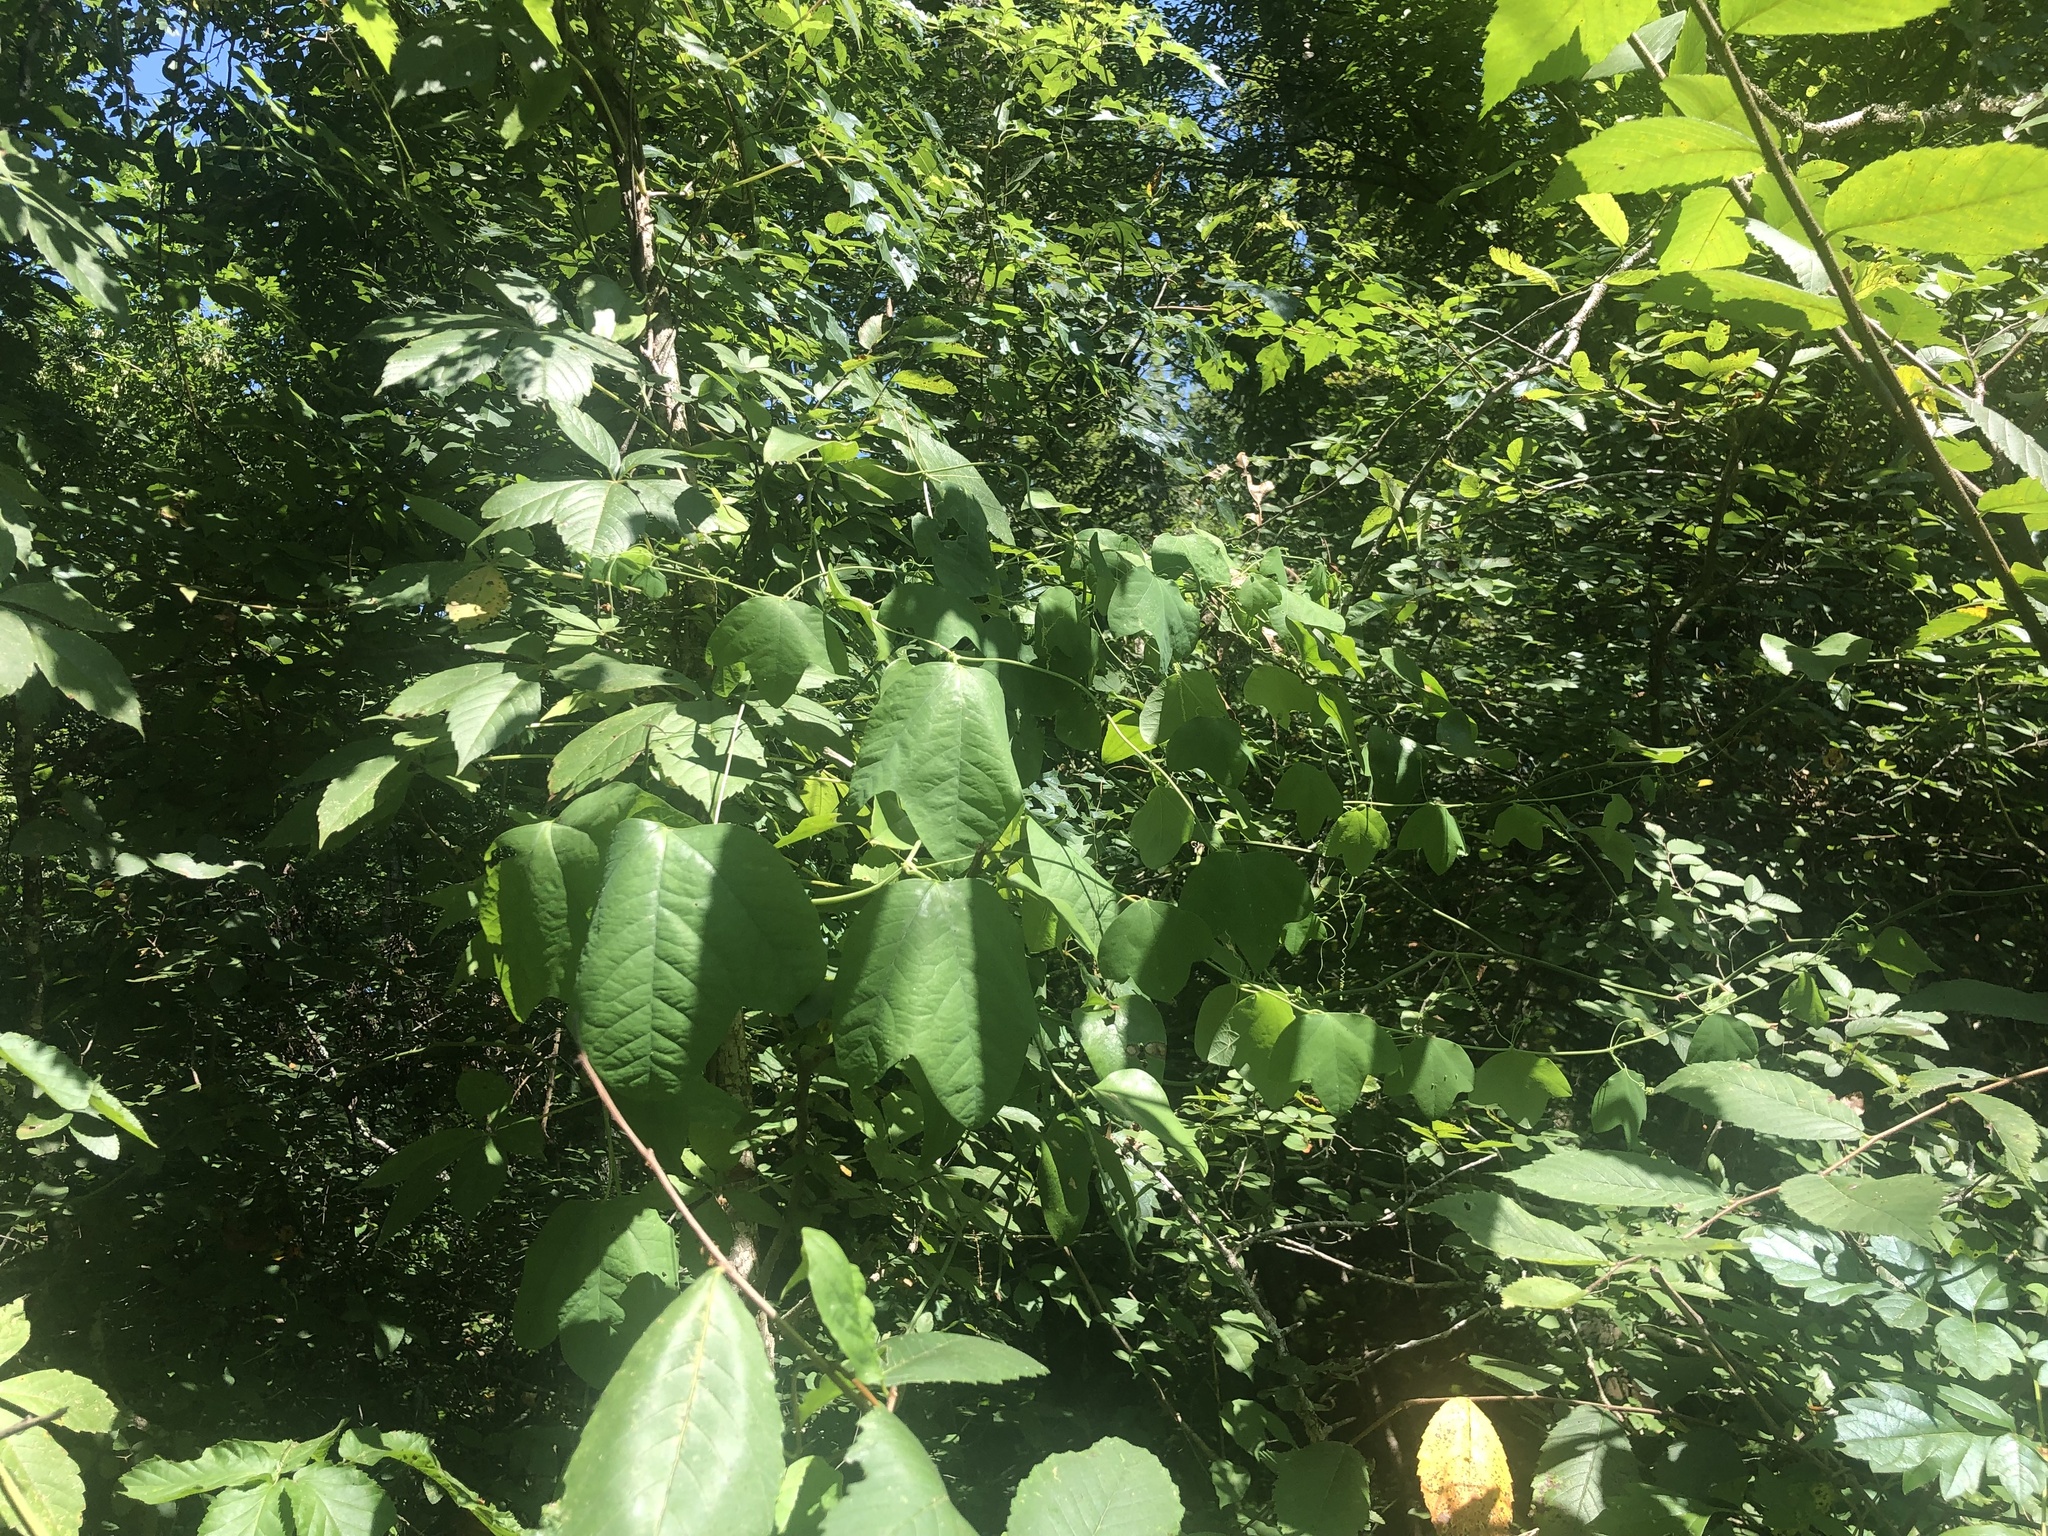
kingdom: Plantae
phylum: Tracheophyta
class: Magnoliopsida
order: Malpighiales
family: Passifloraceae
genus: Passiflora
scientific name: Passiflora lutea
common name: Yellow passionflower
